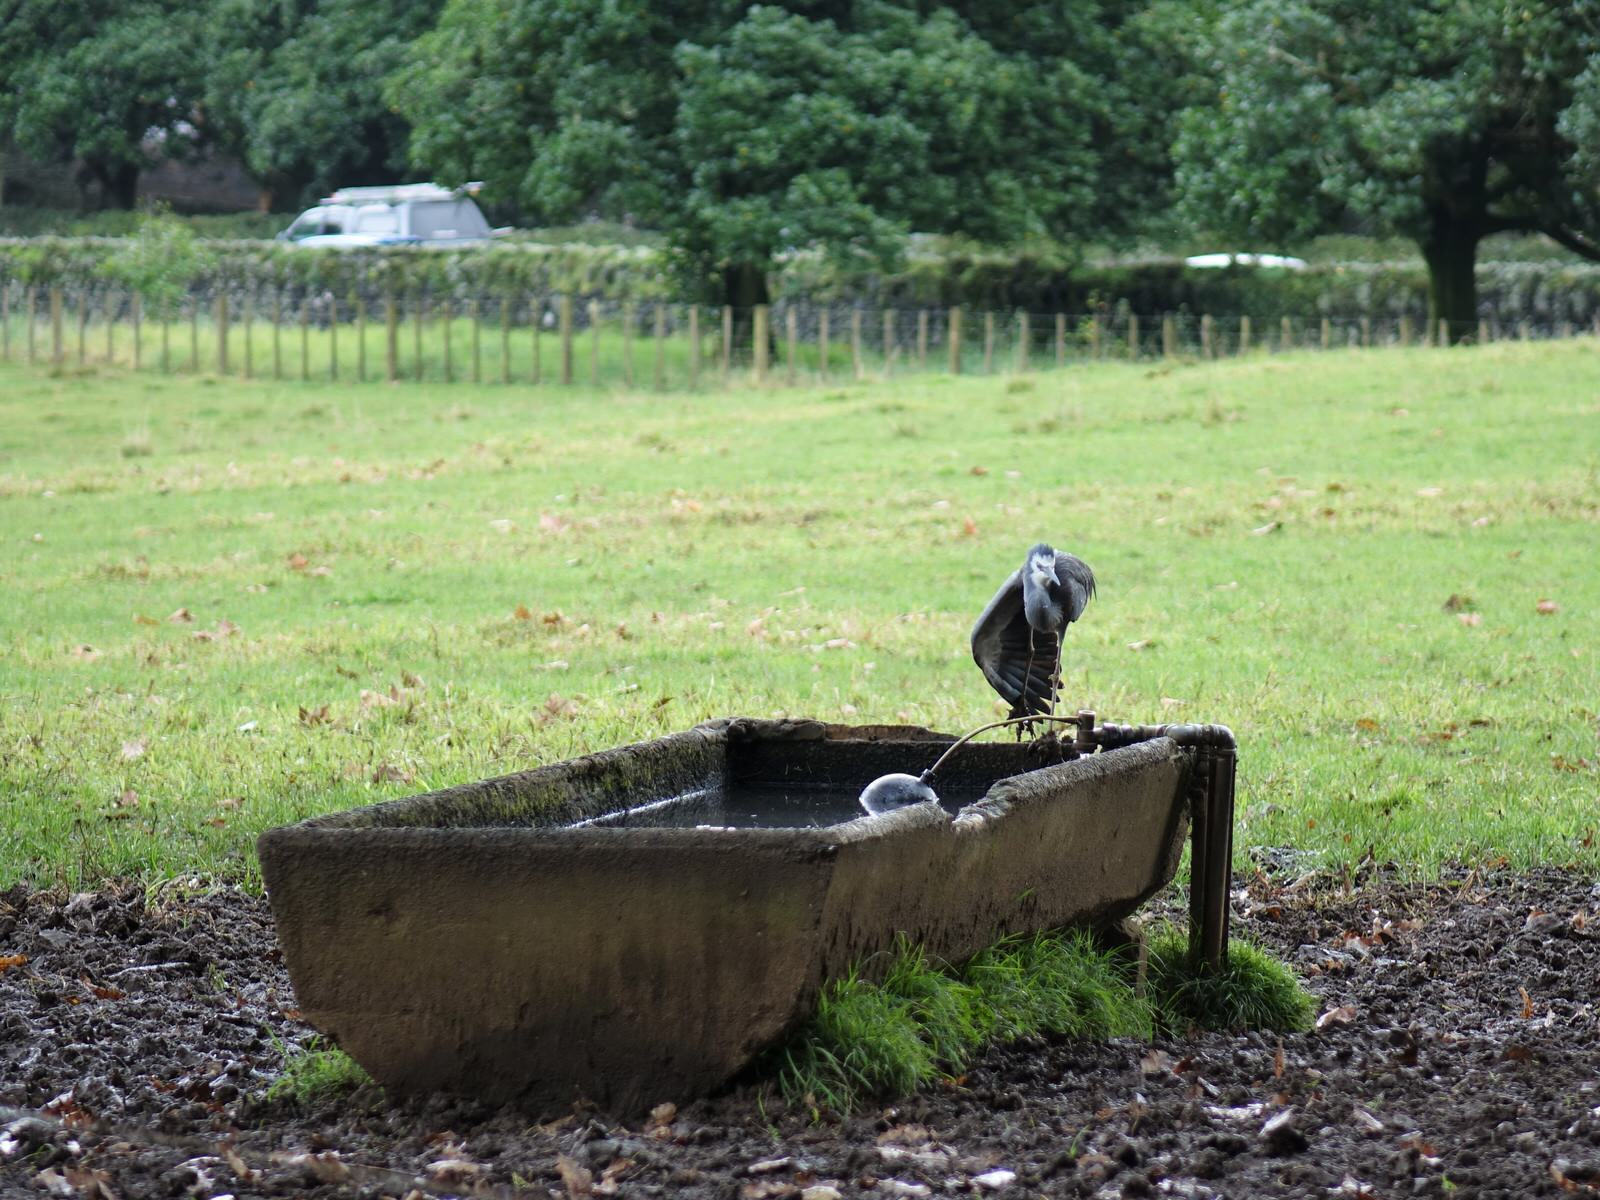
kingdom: Animalia
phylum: Chordata
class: Aves
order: Pelecaniformes
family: Ardeidae
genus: Egretta
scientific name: Egretta novaehollandiae
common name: White-faced heron
